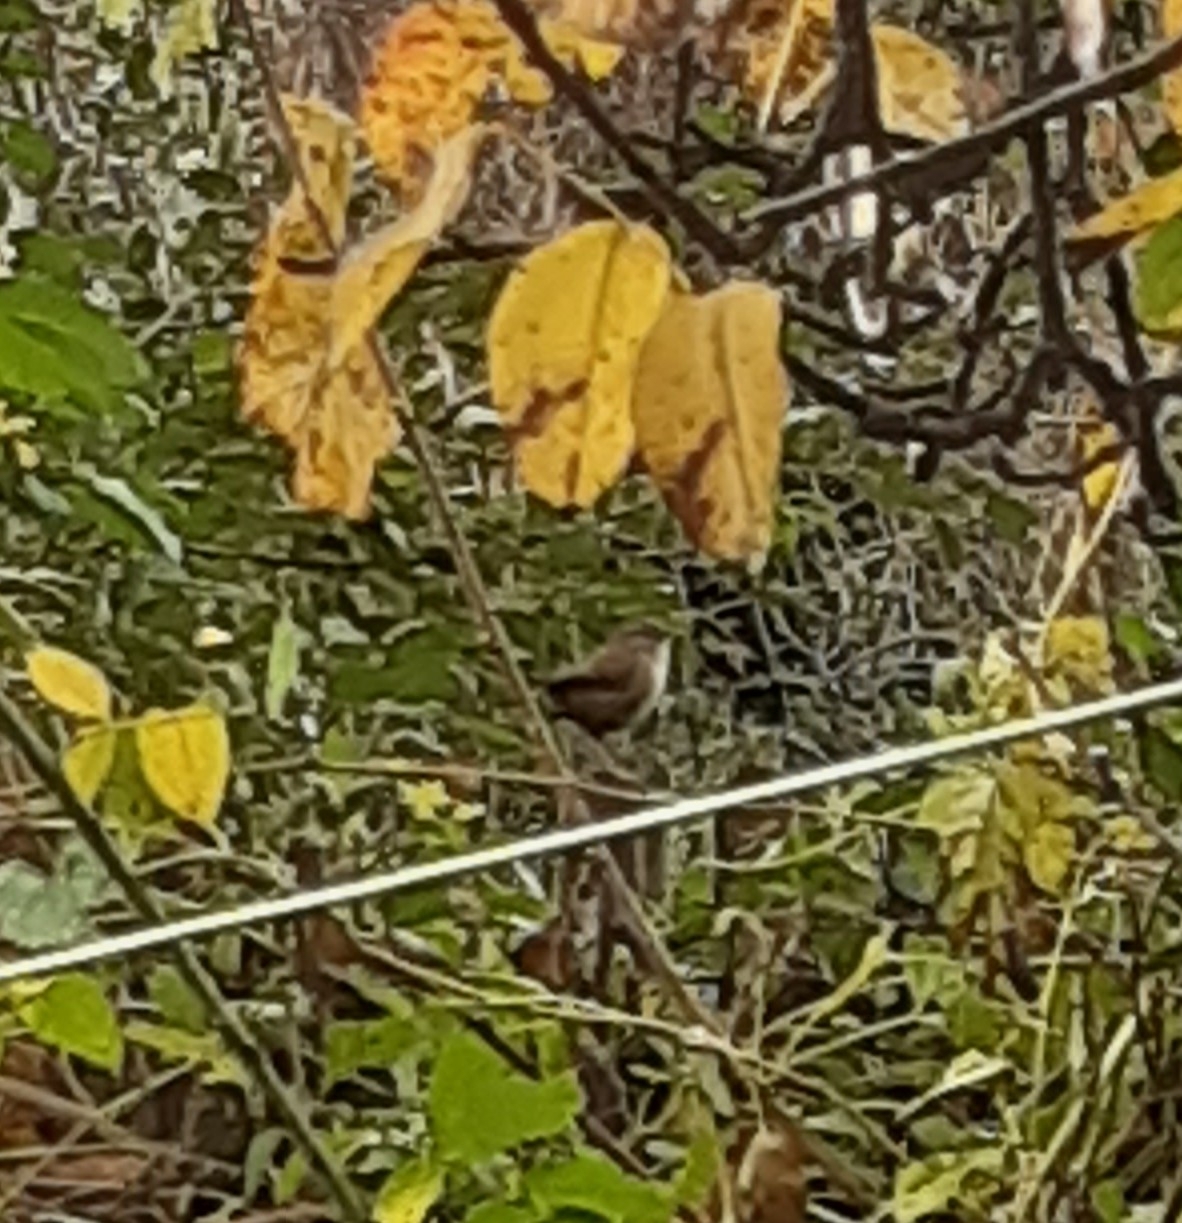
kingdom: Animalia
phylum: Chordata
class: Aves
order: Passeriformes
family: Troglodytidae
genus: Troglodytes
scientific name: Troglodytes troglodytes
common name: Eurasian wren
